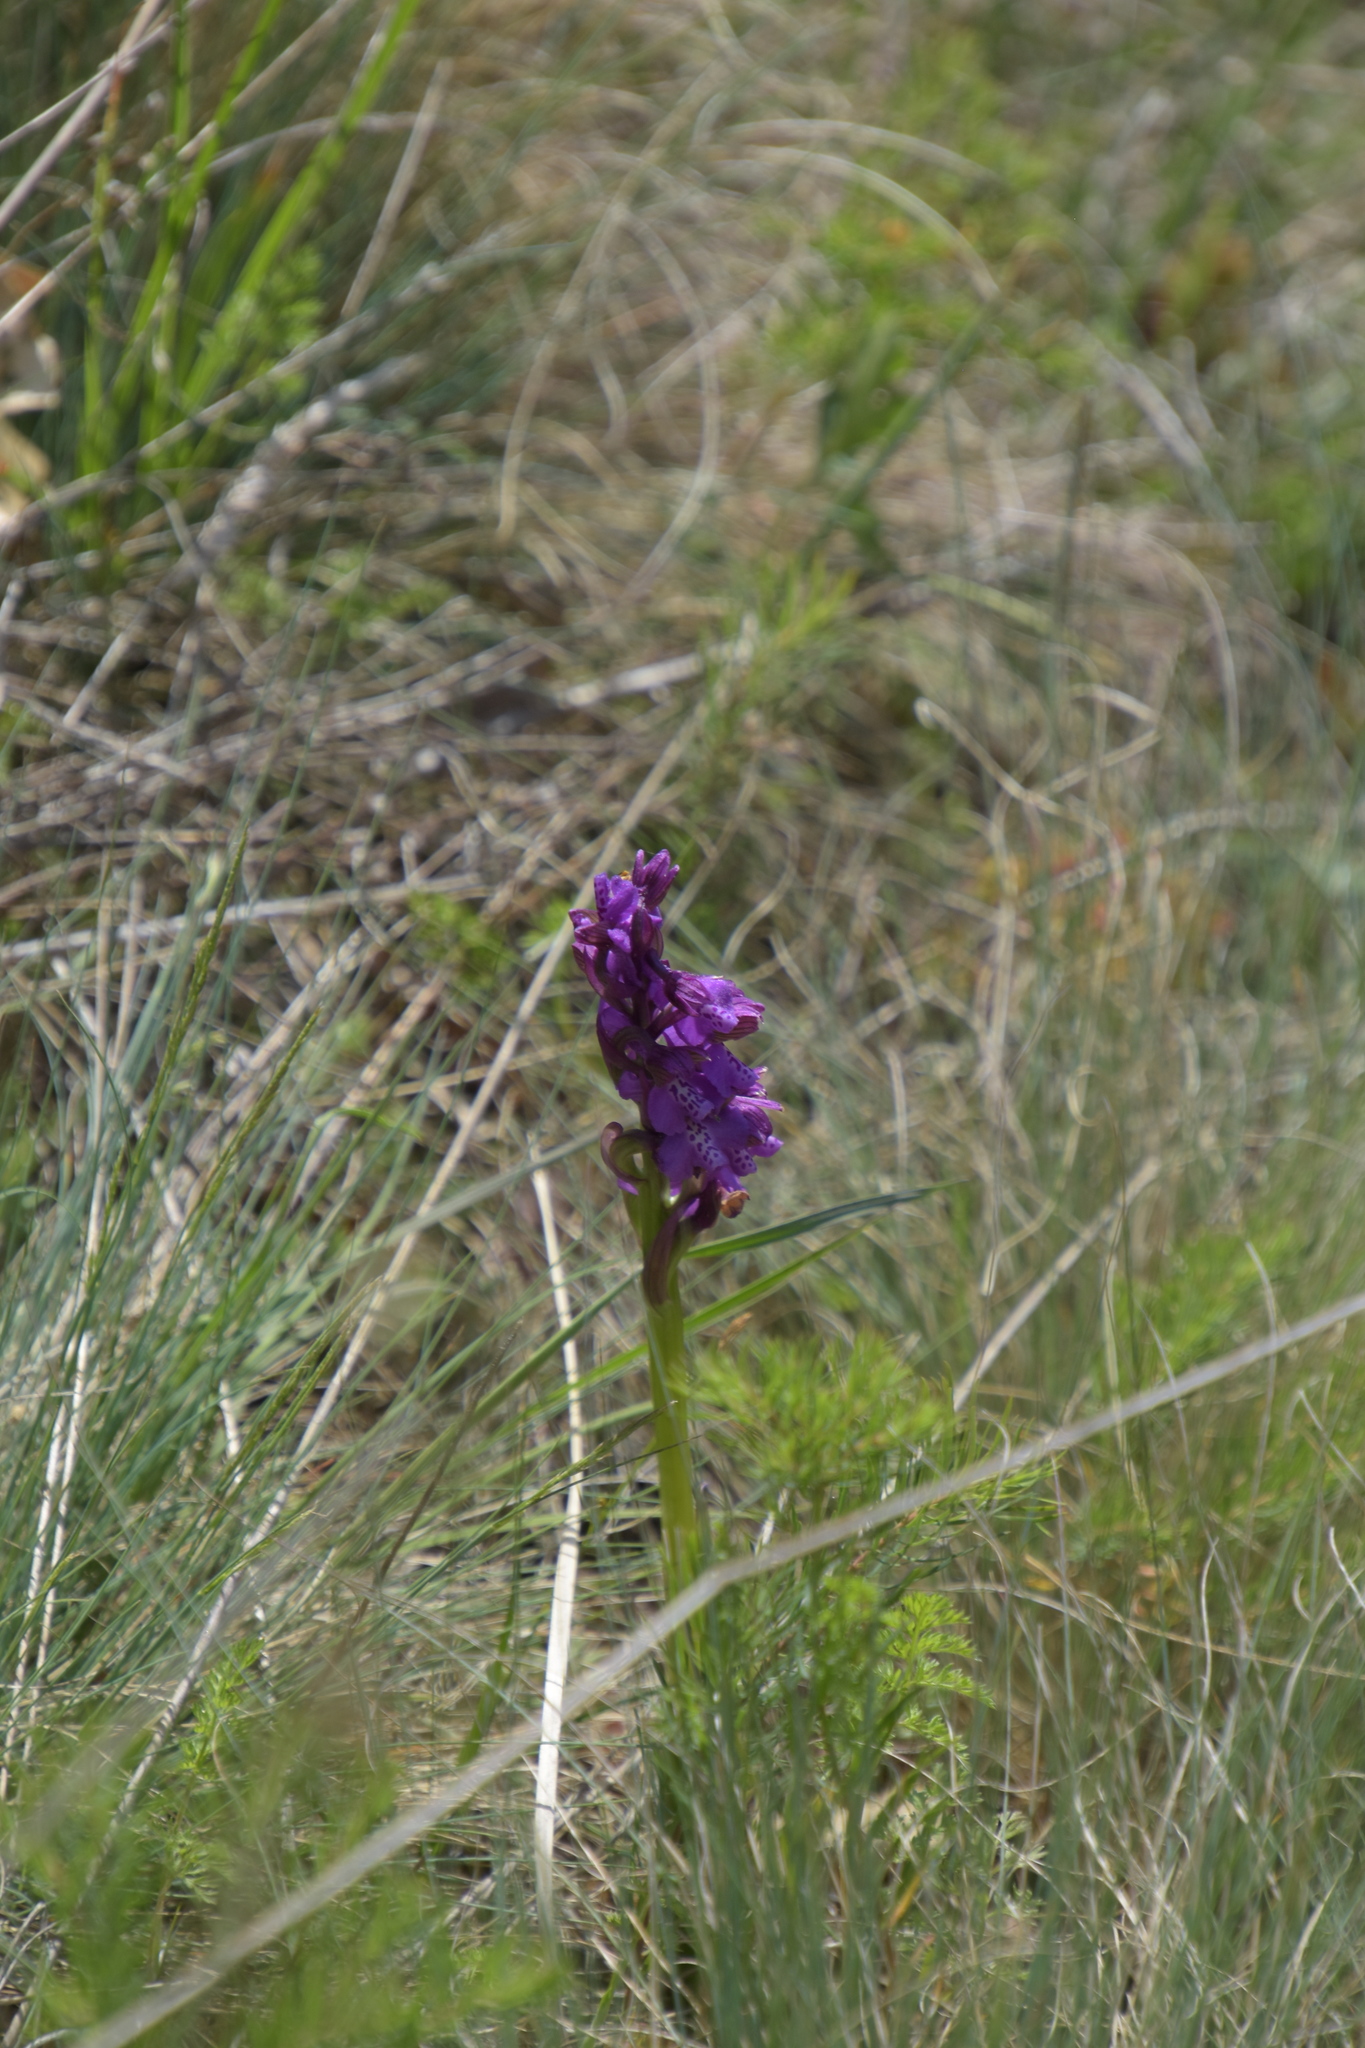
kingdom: Plantae
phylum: Tracheophyta
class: Liliopsida
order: Asparagales
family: Orchidaceae
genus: Anacamptis
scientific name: Anacamptis morio
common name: Green-winged orchid
